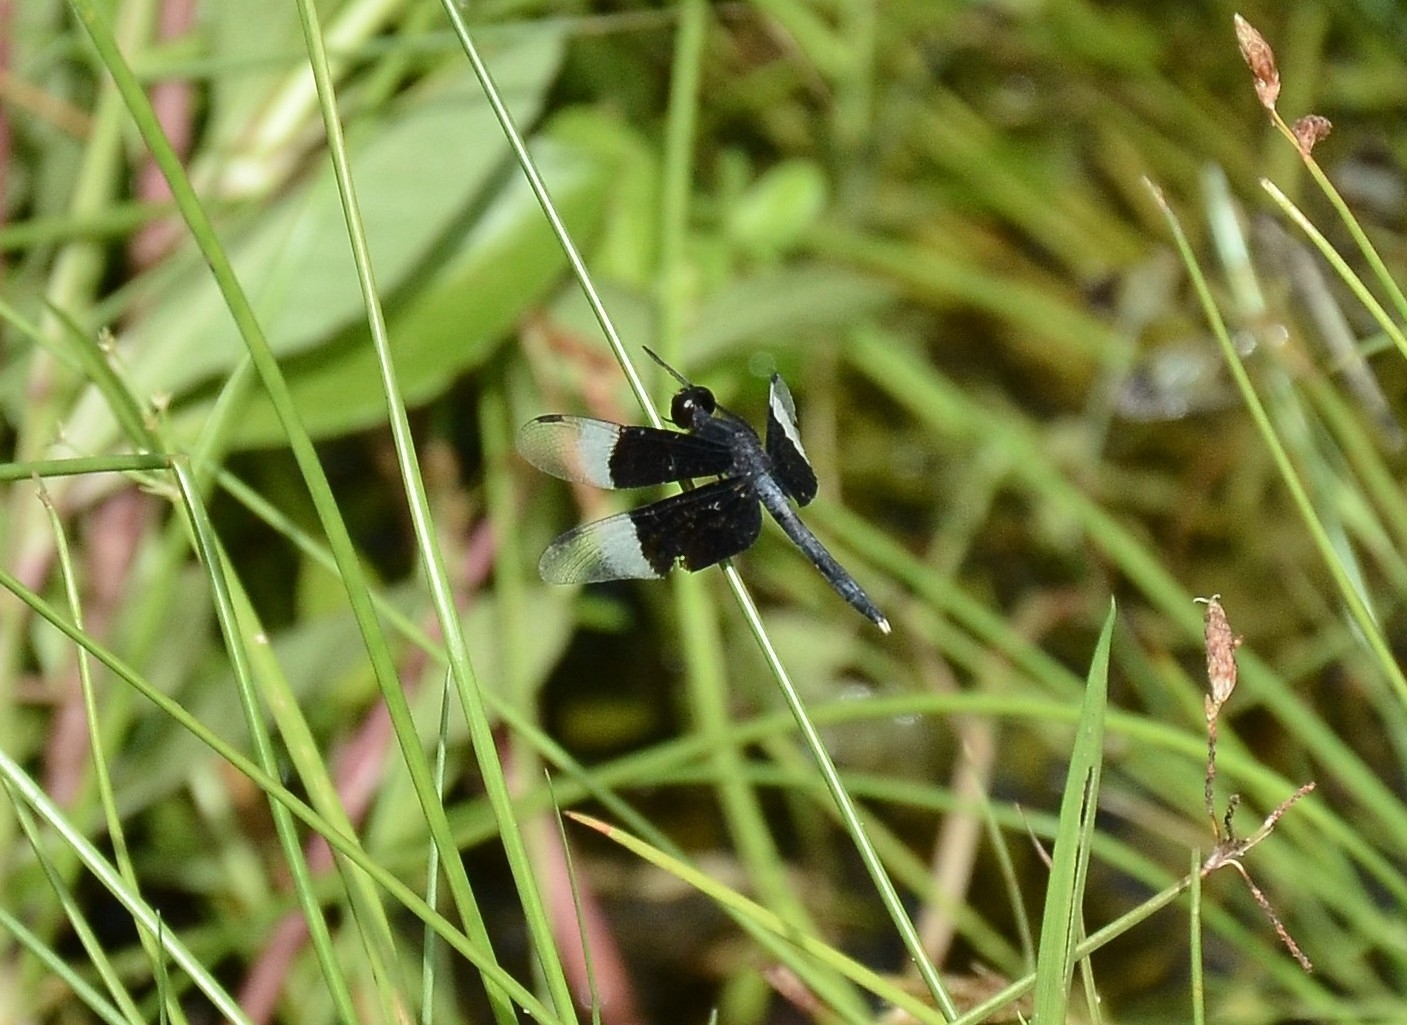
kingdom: Animalia
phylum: Arthropoda
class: Insecta
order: Odonata
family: Libellulidae
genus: Neurothemis
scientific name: Neurothemis tullia
